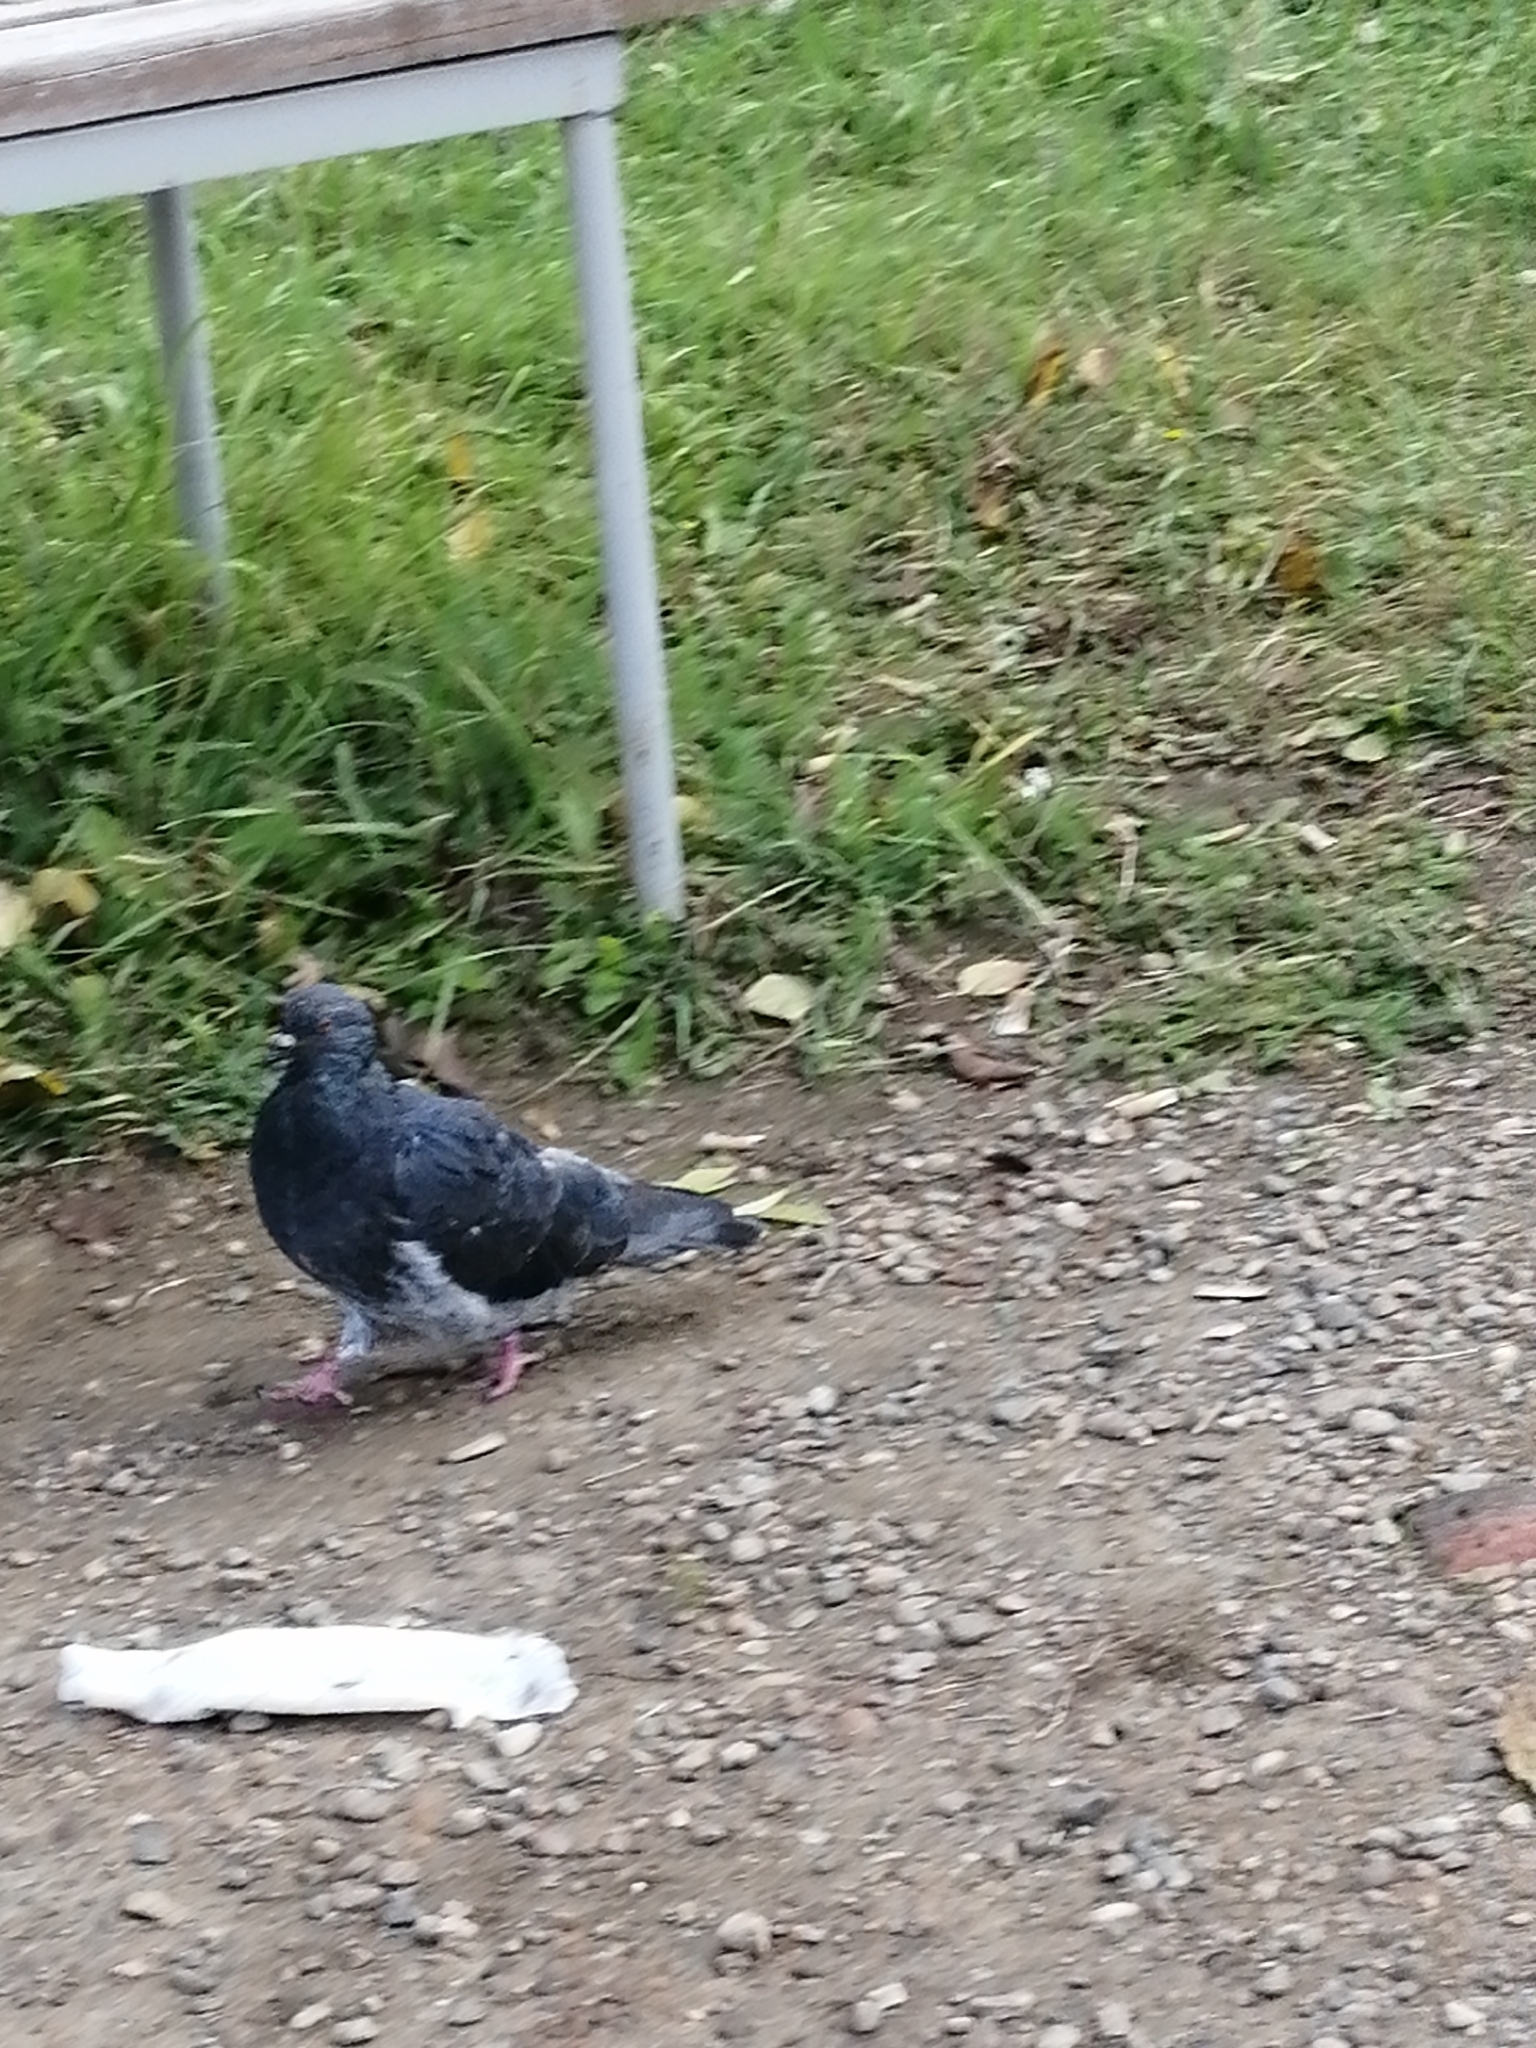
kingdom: Animalia
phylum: Chordata
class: Aves
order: Columbiformes
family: Columbidae
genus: Columba
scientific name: Columba livia
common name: Rock pigeon
